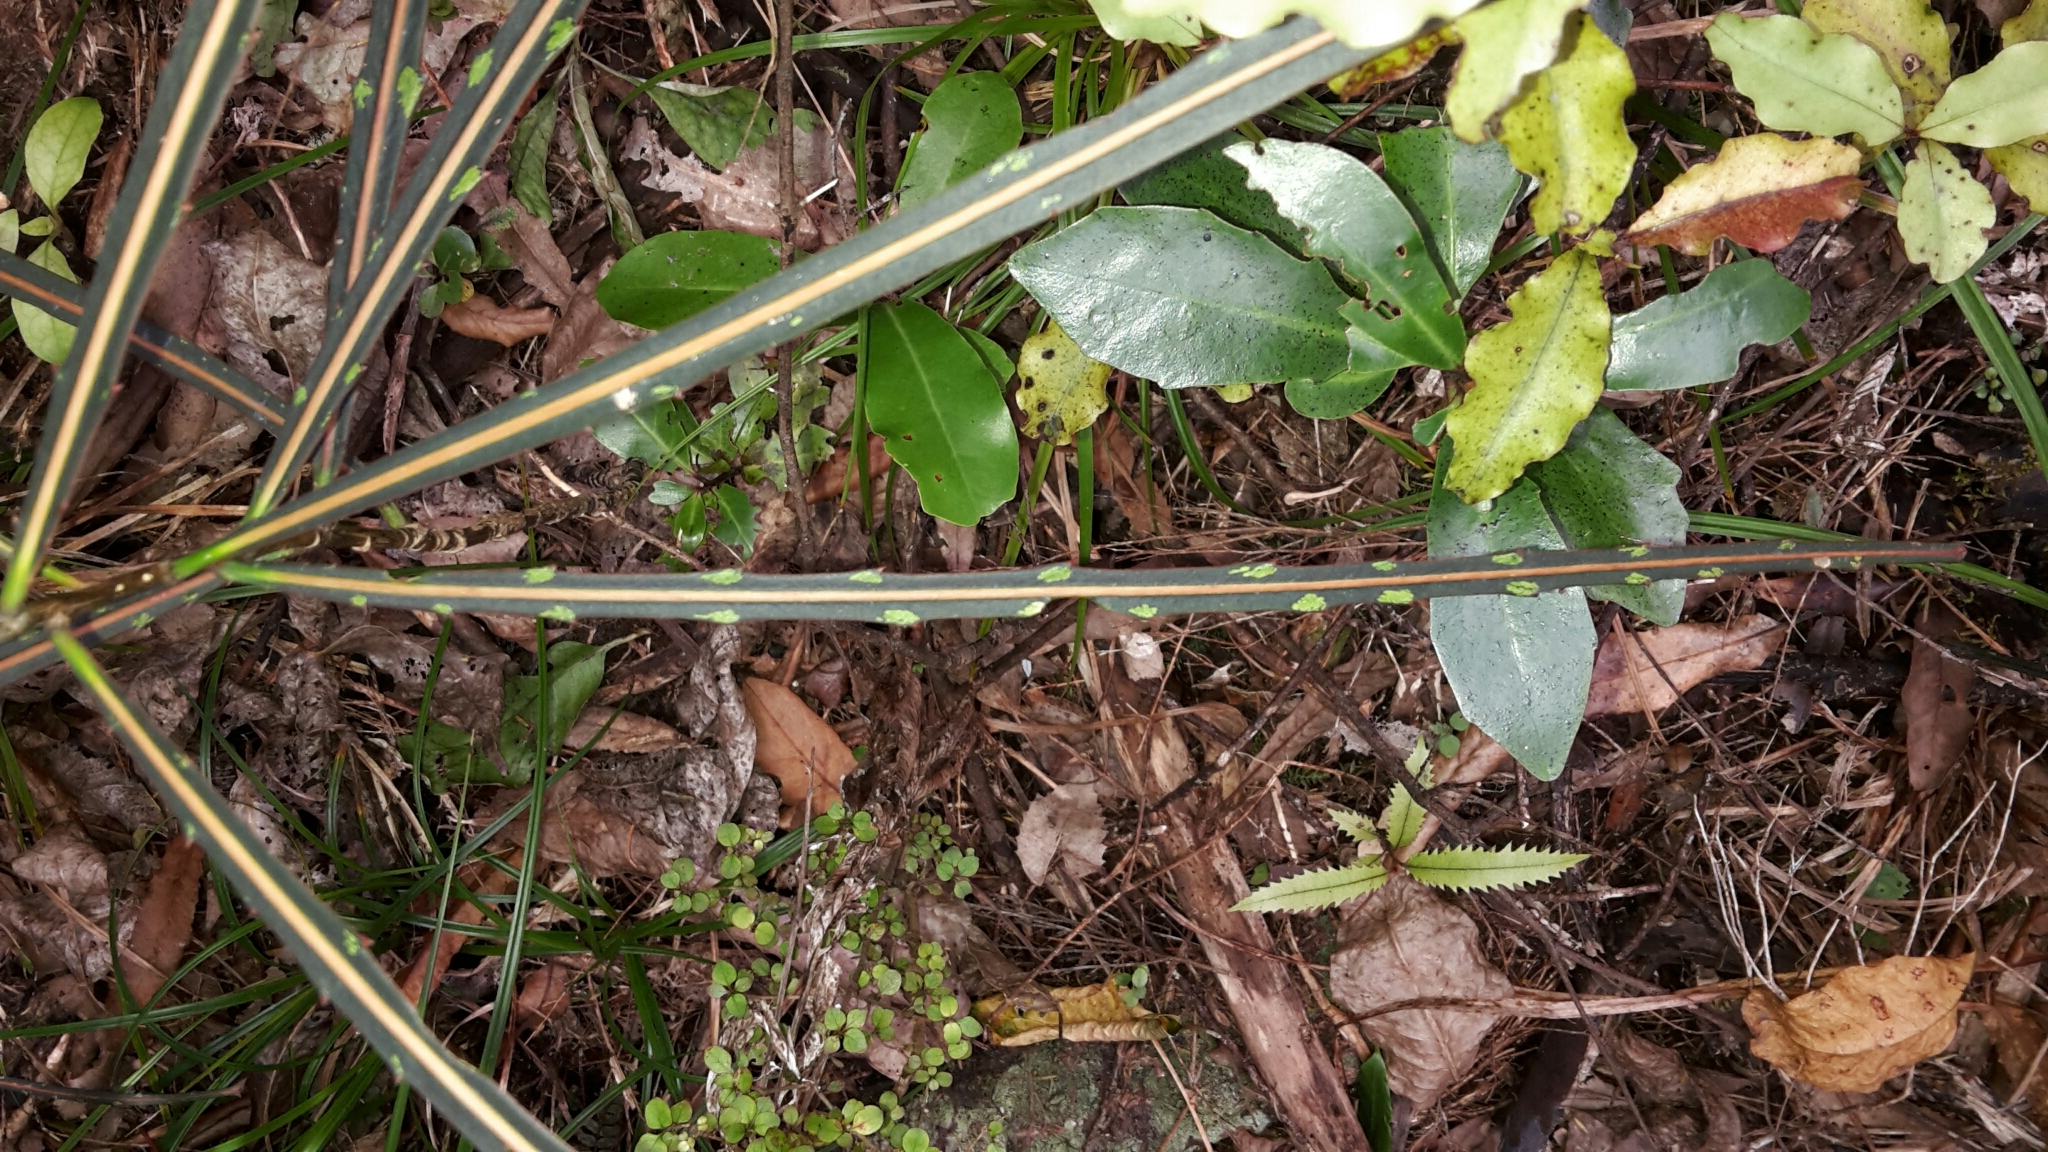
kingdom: Plantae
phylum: Tracheophyta
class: Magnoliopsida
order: Apiales
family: Araliaceae
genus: Pseudopanax
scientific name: Pseudopanax crassifolius
